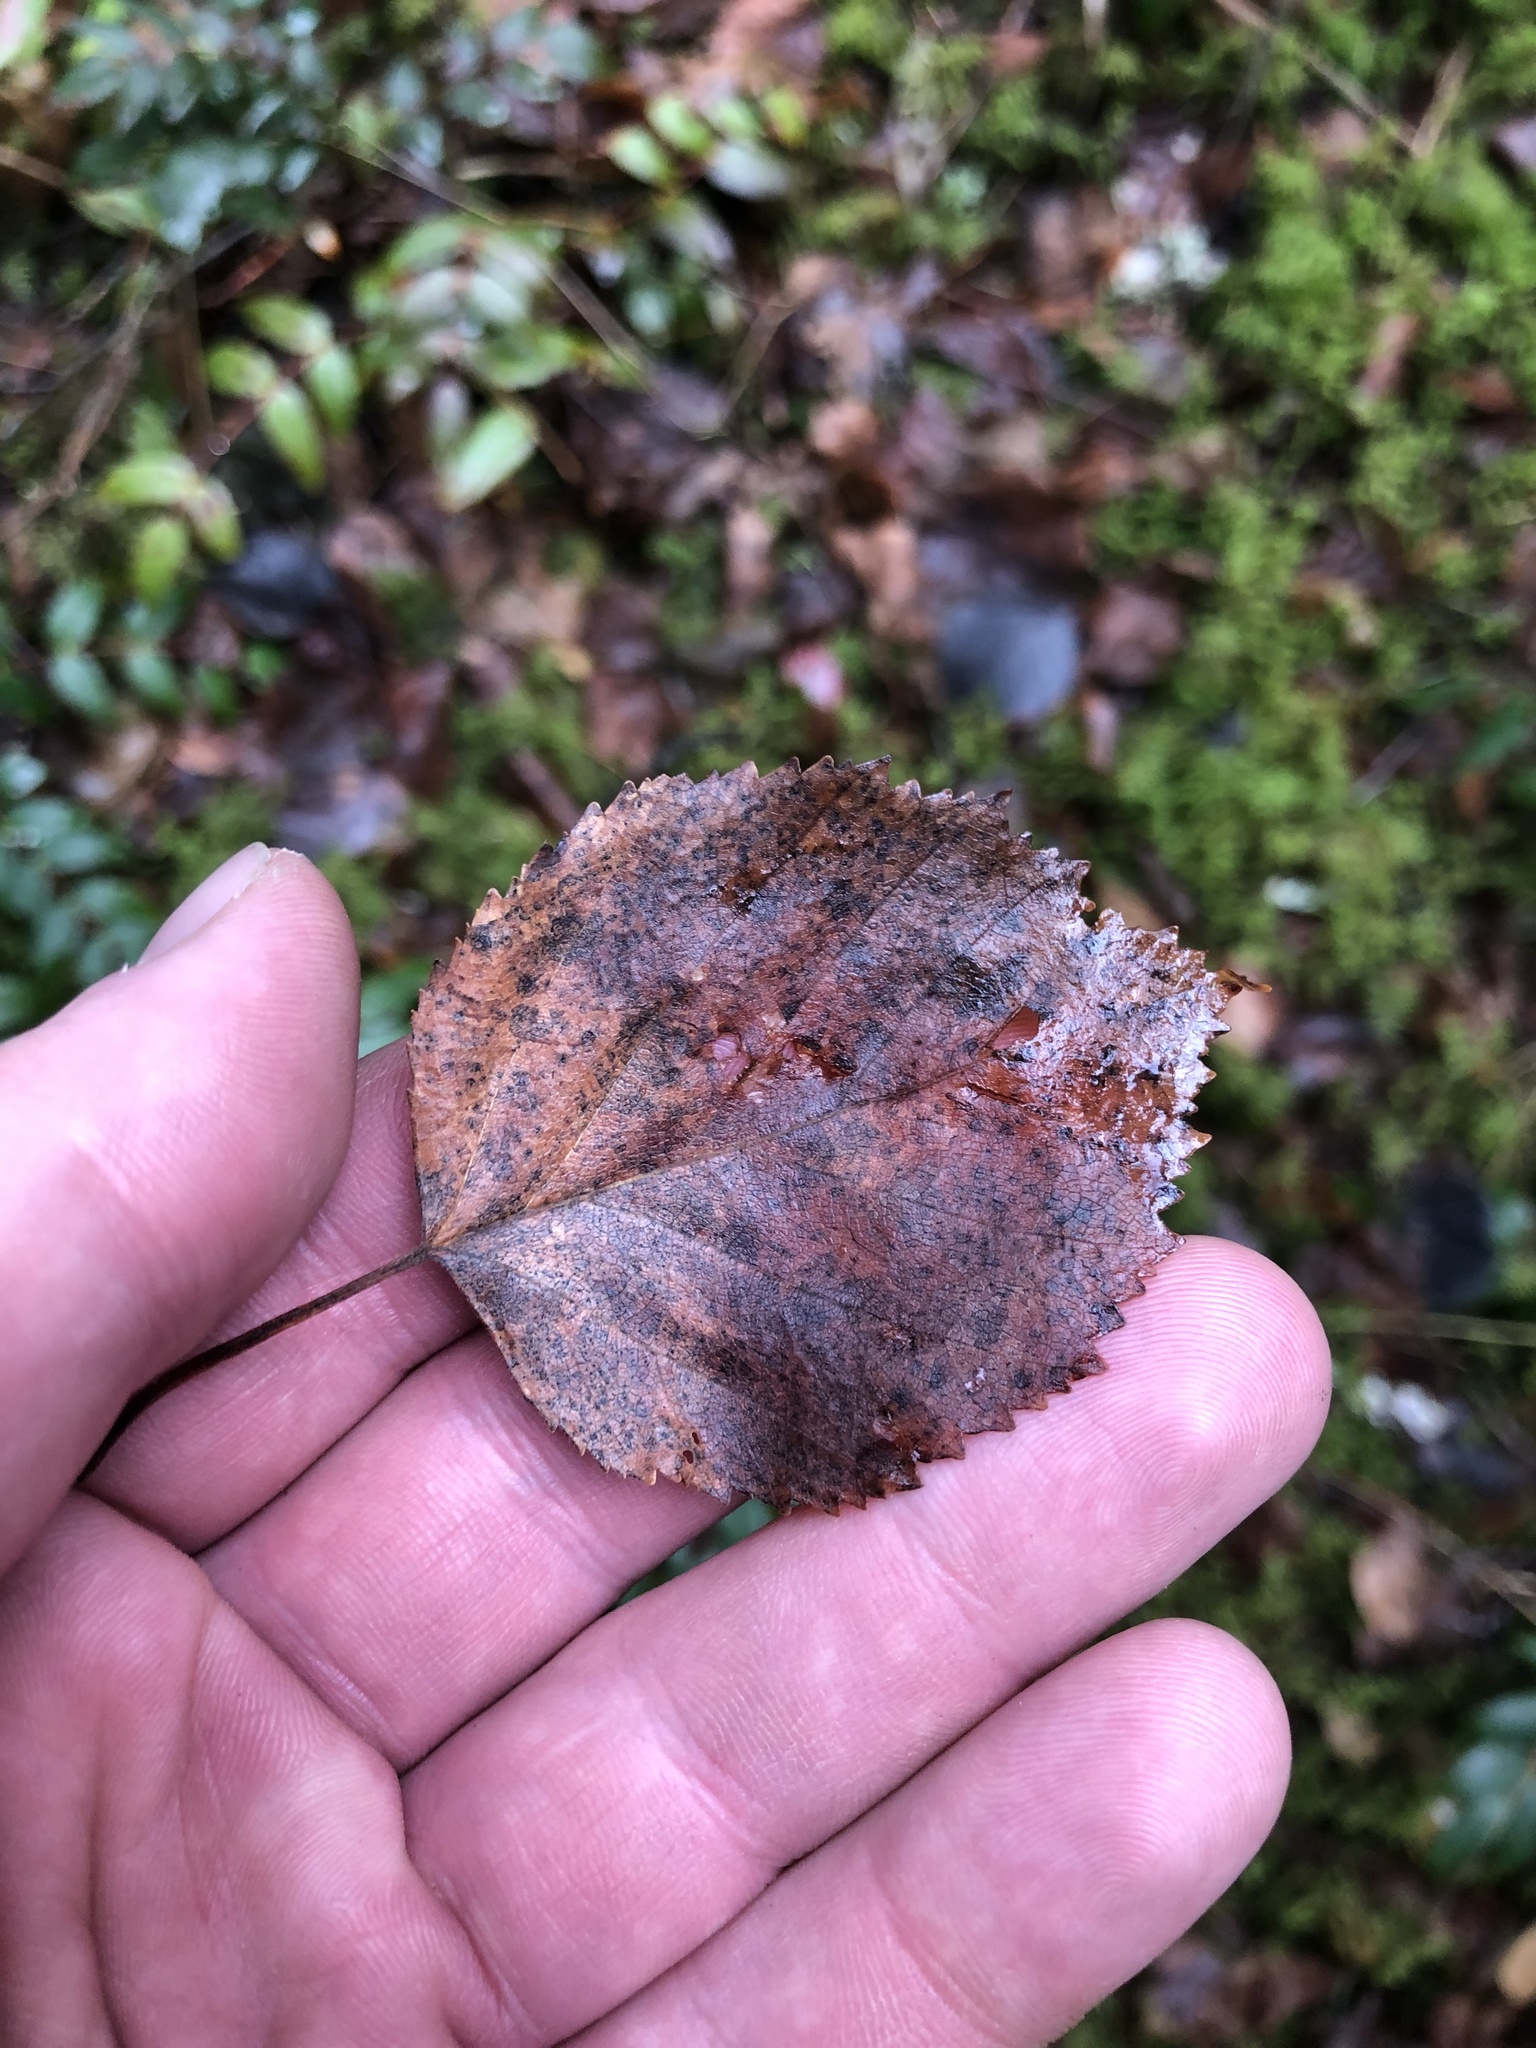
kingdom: Plantae
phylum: Tracheophyta
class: Magnoliopsida
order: Fagales
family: Betulaceae
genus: Betula
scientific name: Betula papyrifera
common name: Paper birch
